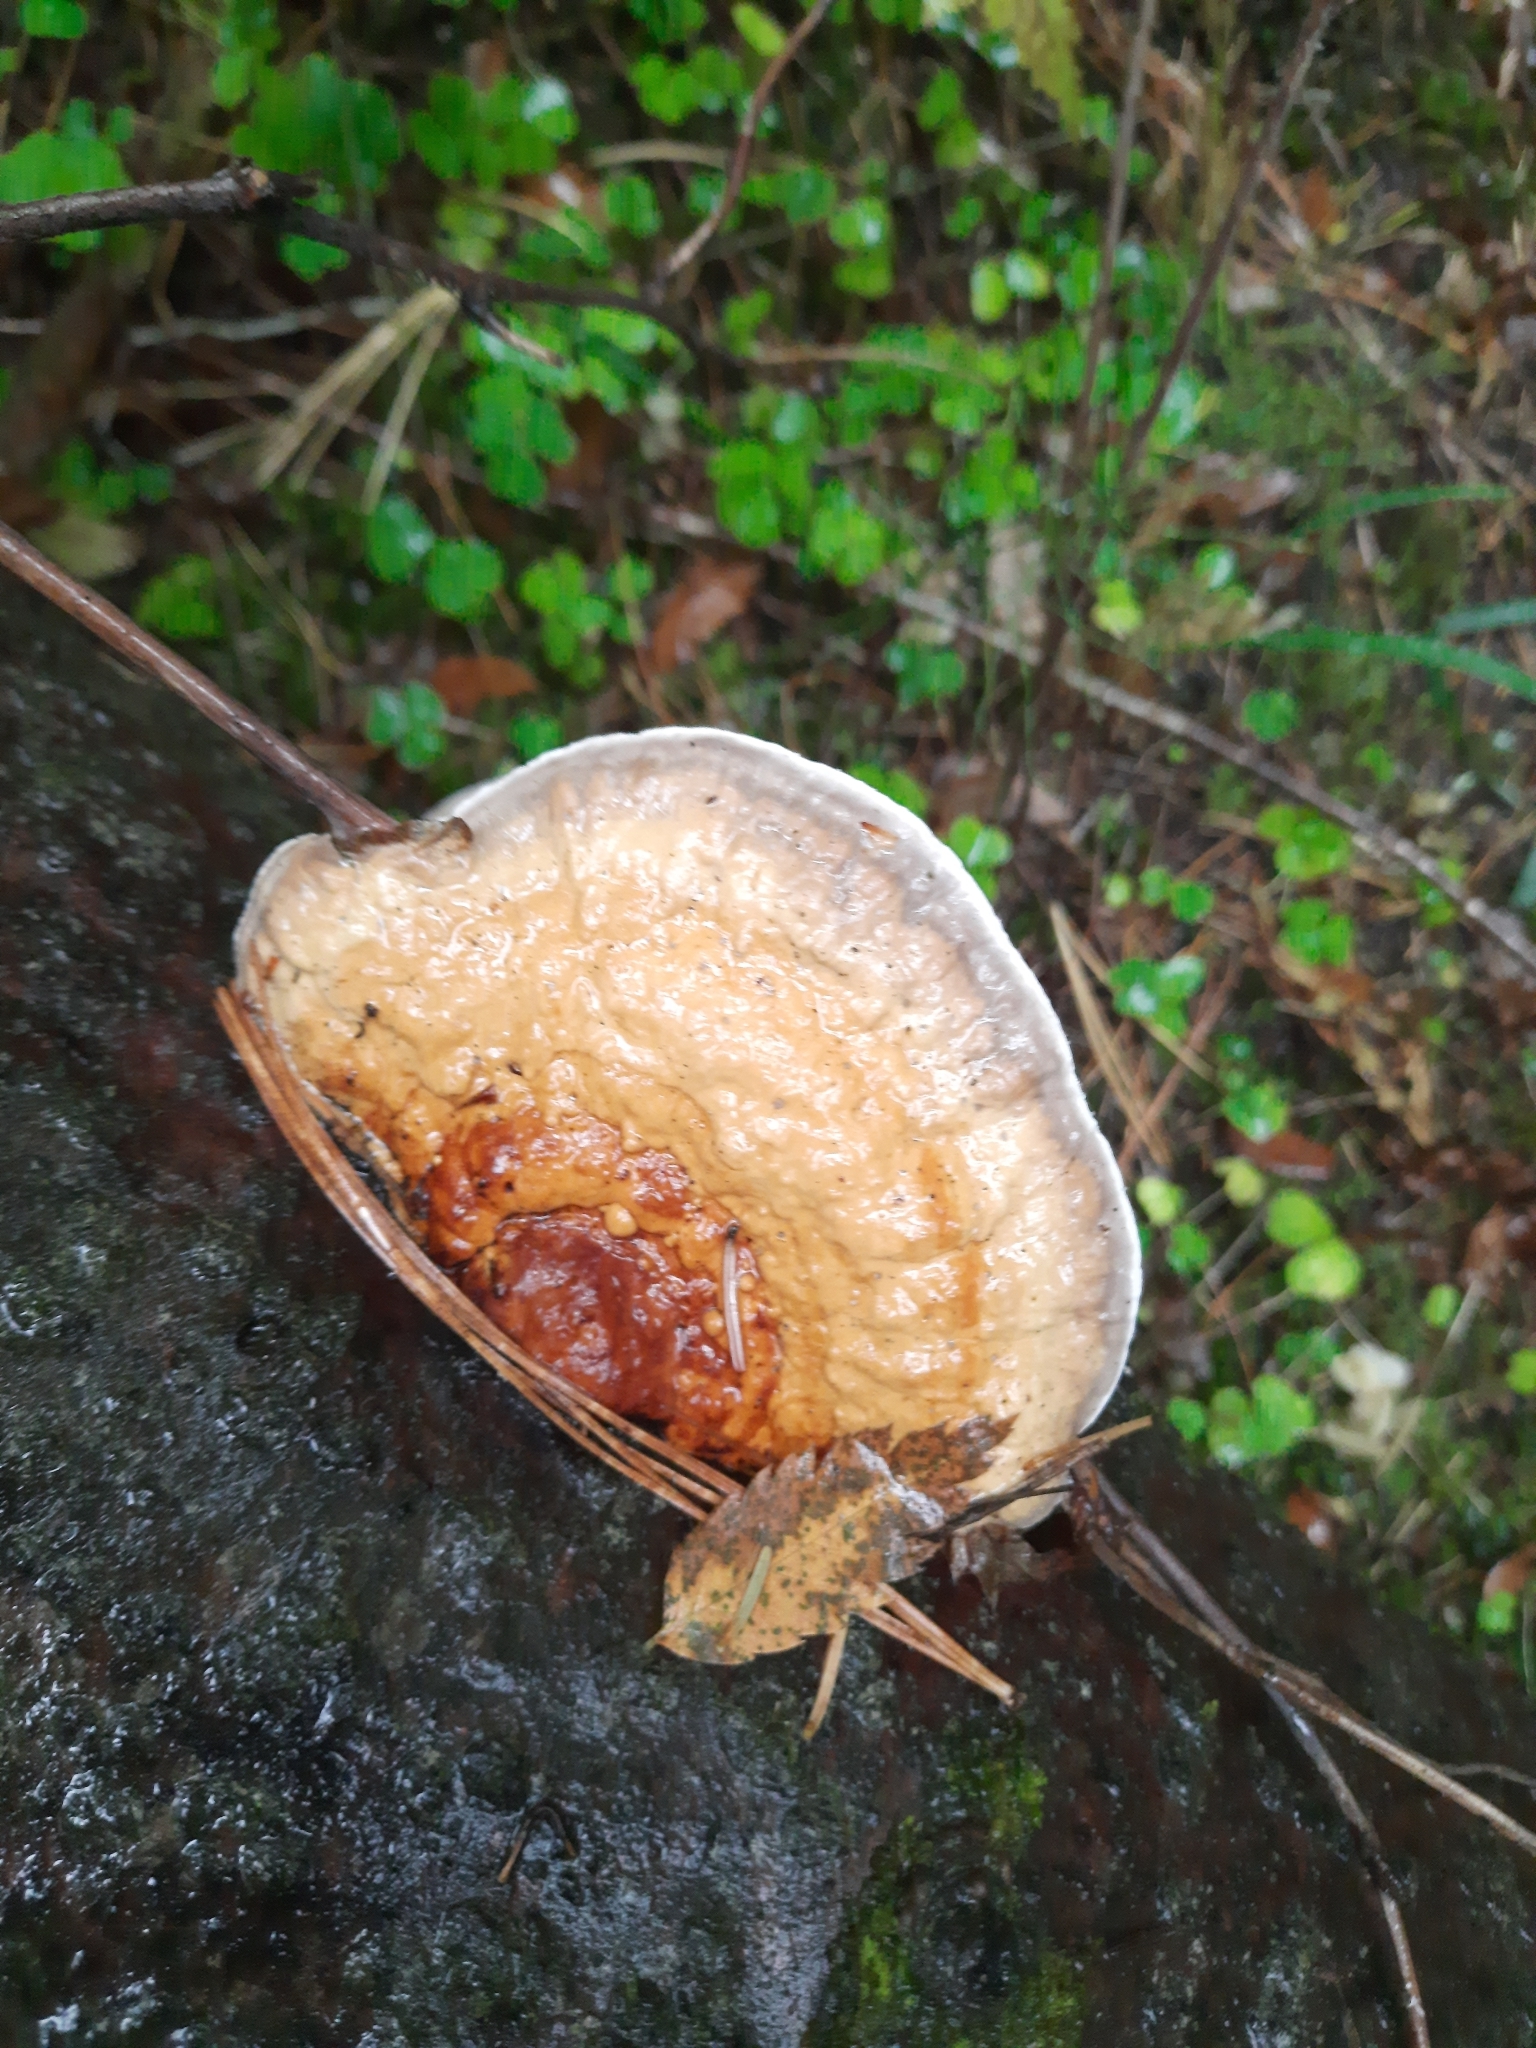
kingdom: Fungi
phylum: Basidiomycota
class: Agaricomycetes
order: Polyporales
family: Fomitopsidaceae
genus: Fomitopsis
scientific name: Fomitopsis pinicola
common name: Red-belted bracket
